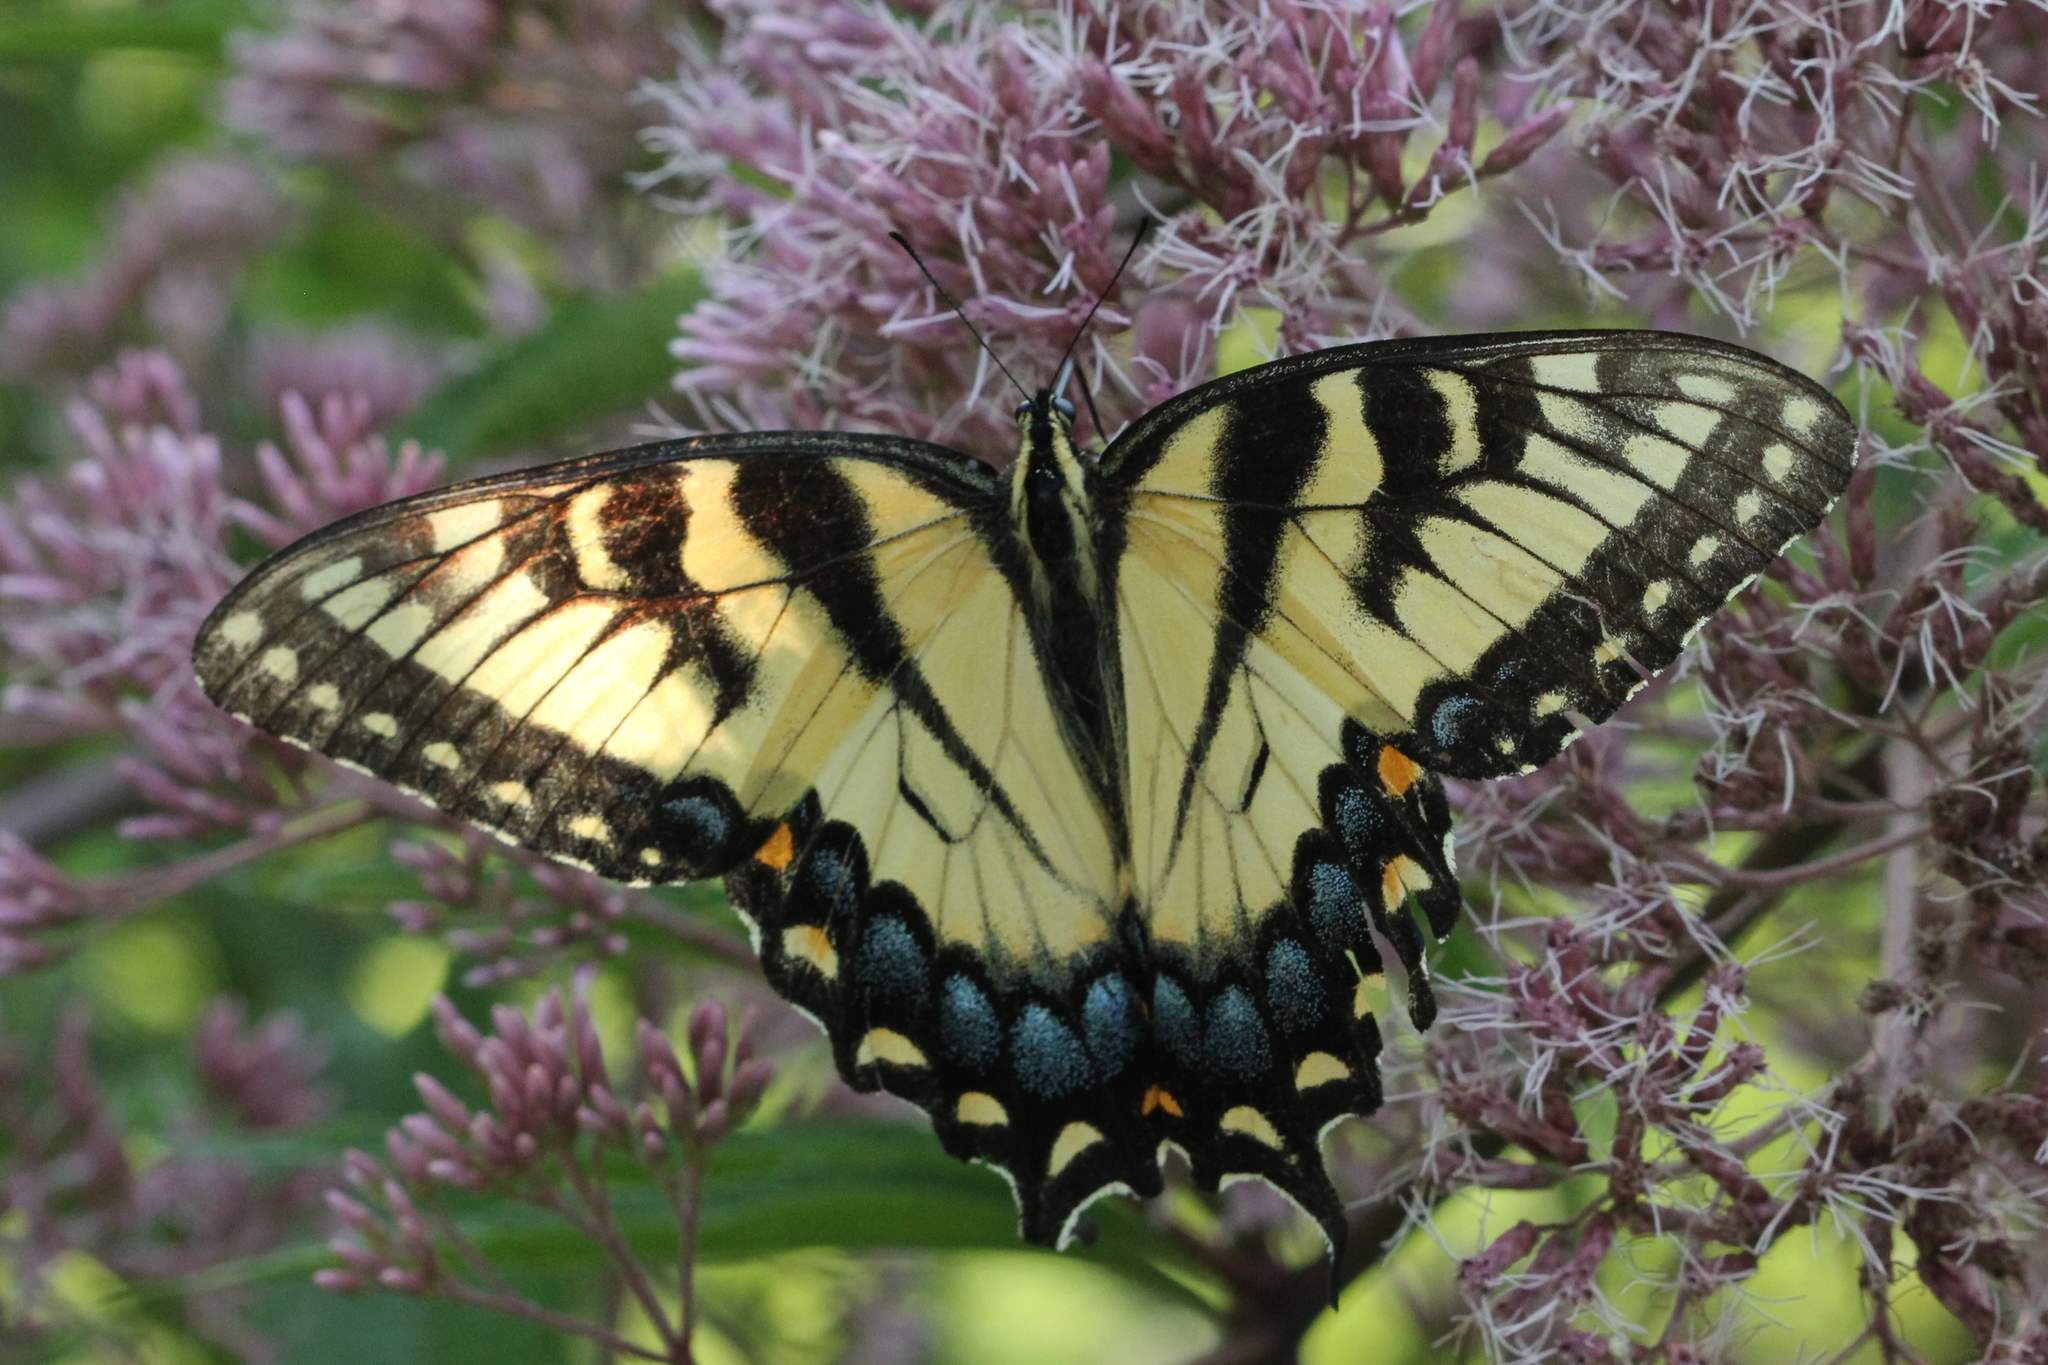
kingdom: Animalia
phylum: Arthropoda
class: Insecta
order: Lepidoptera
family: Papilionidae
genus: Papilio
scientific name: Papilio glaucus
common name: Tiger swallowtail
